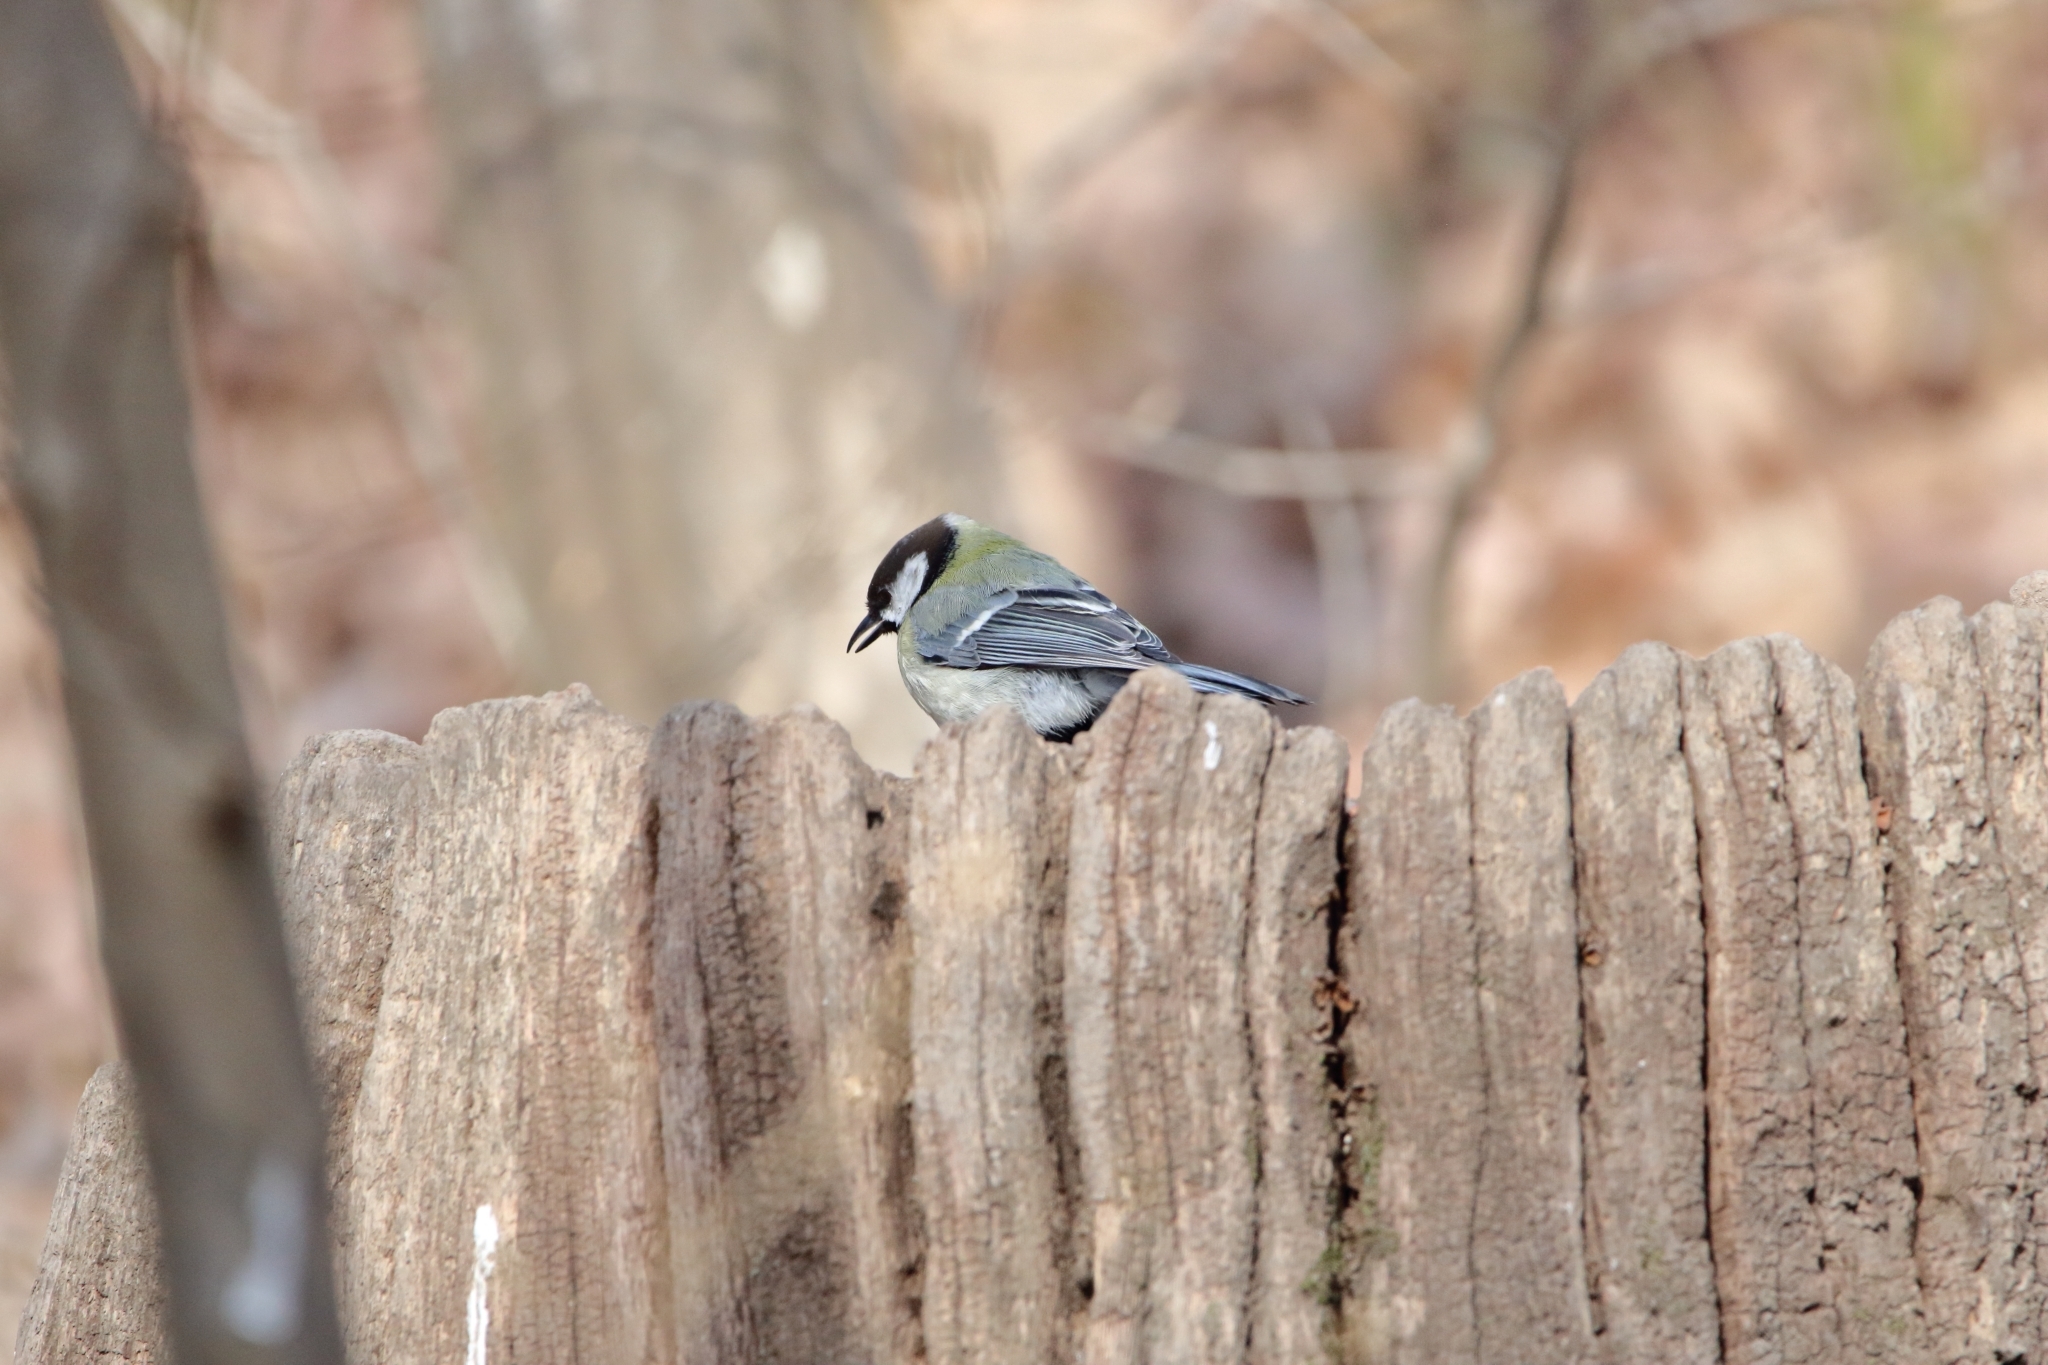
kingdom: Animalia
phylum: Chordata
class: Aves
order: Passeriformes
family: Paridae
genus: Parus
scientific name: Parus major
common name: Great tit
